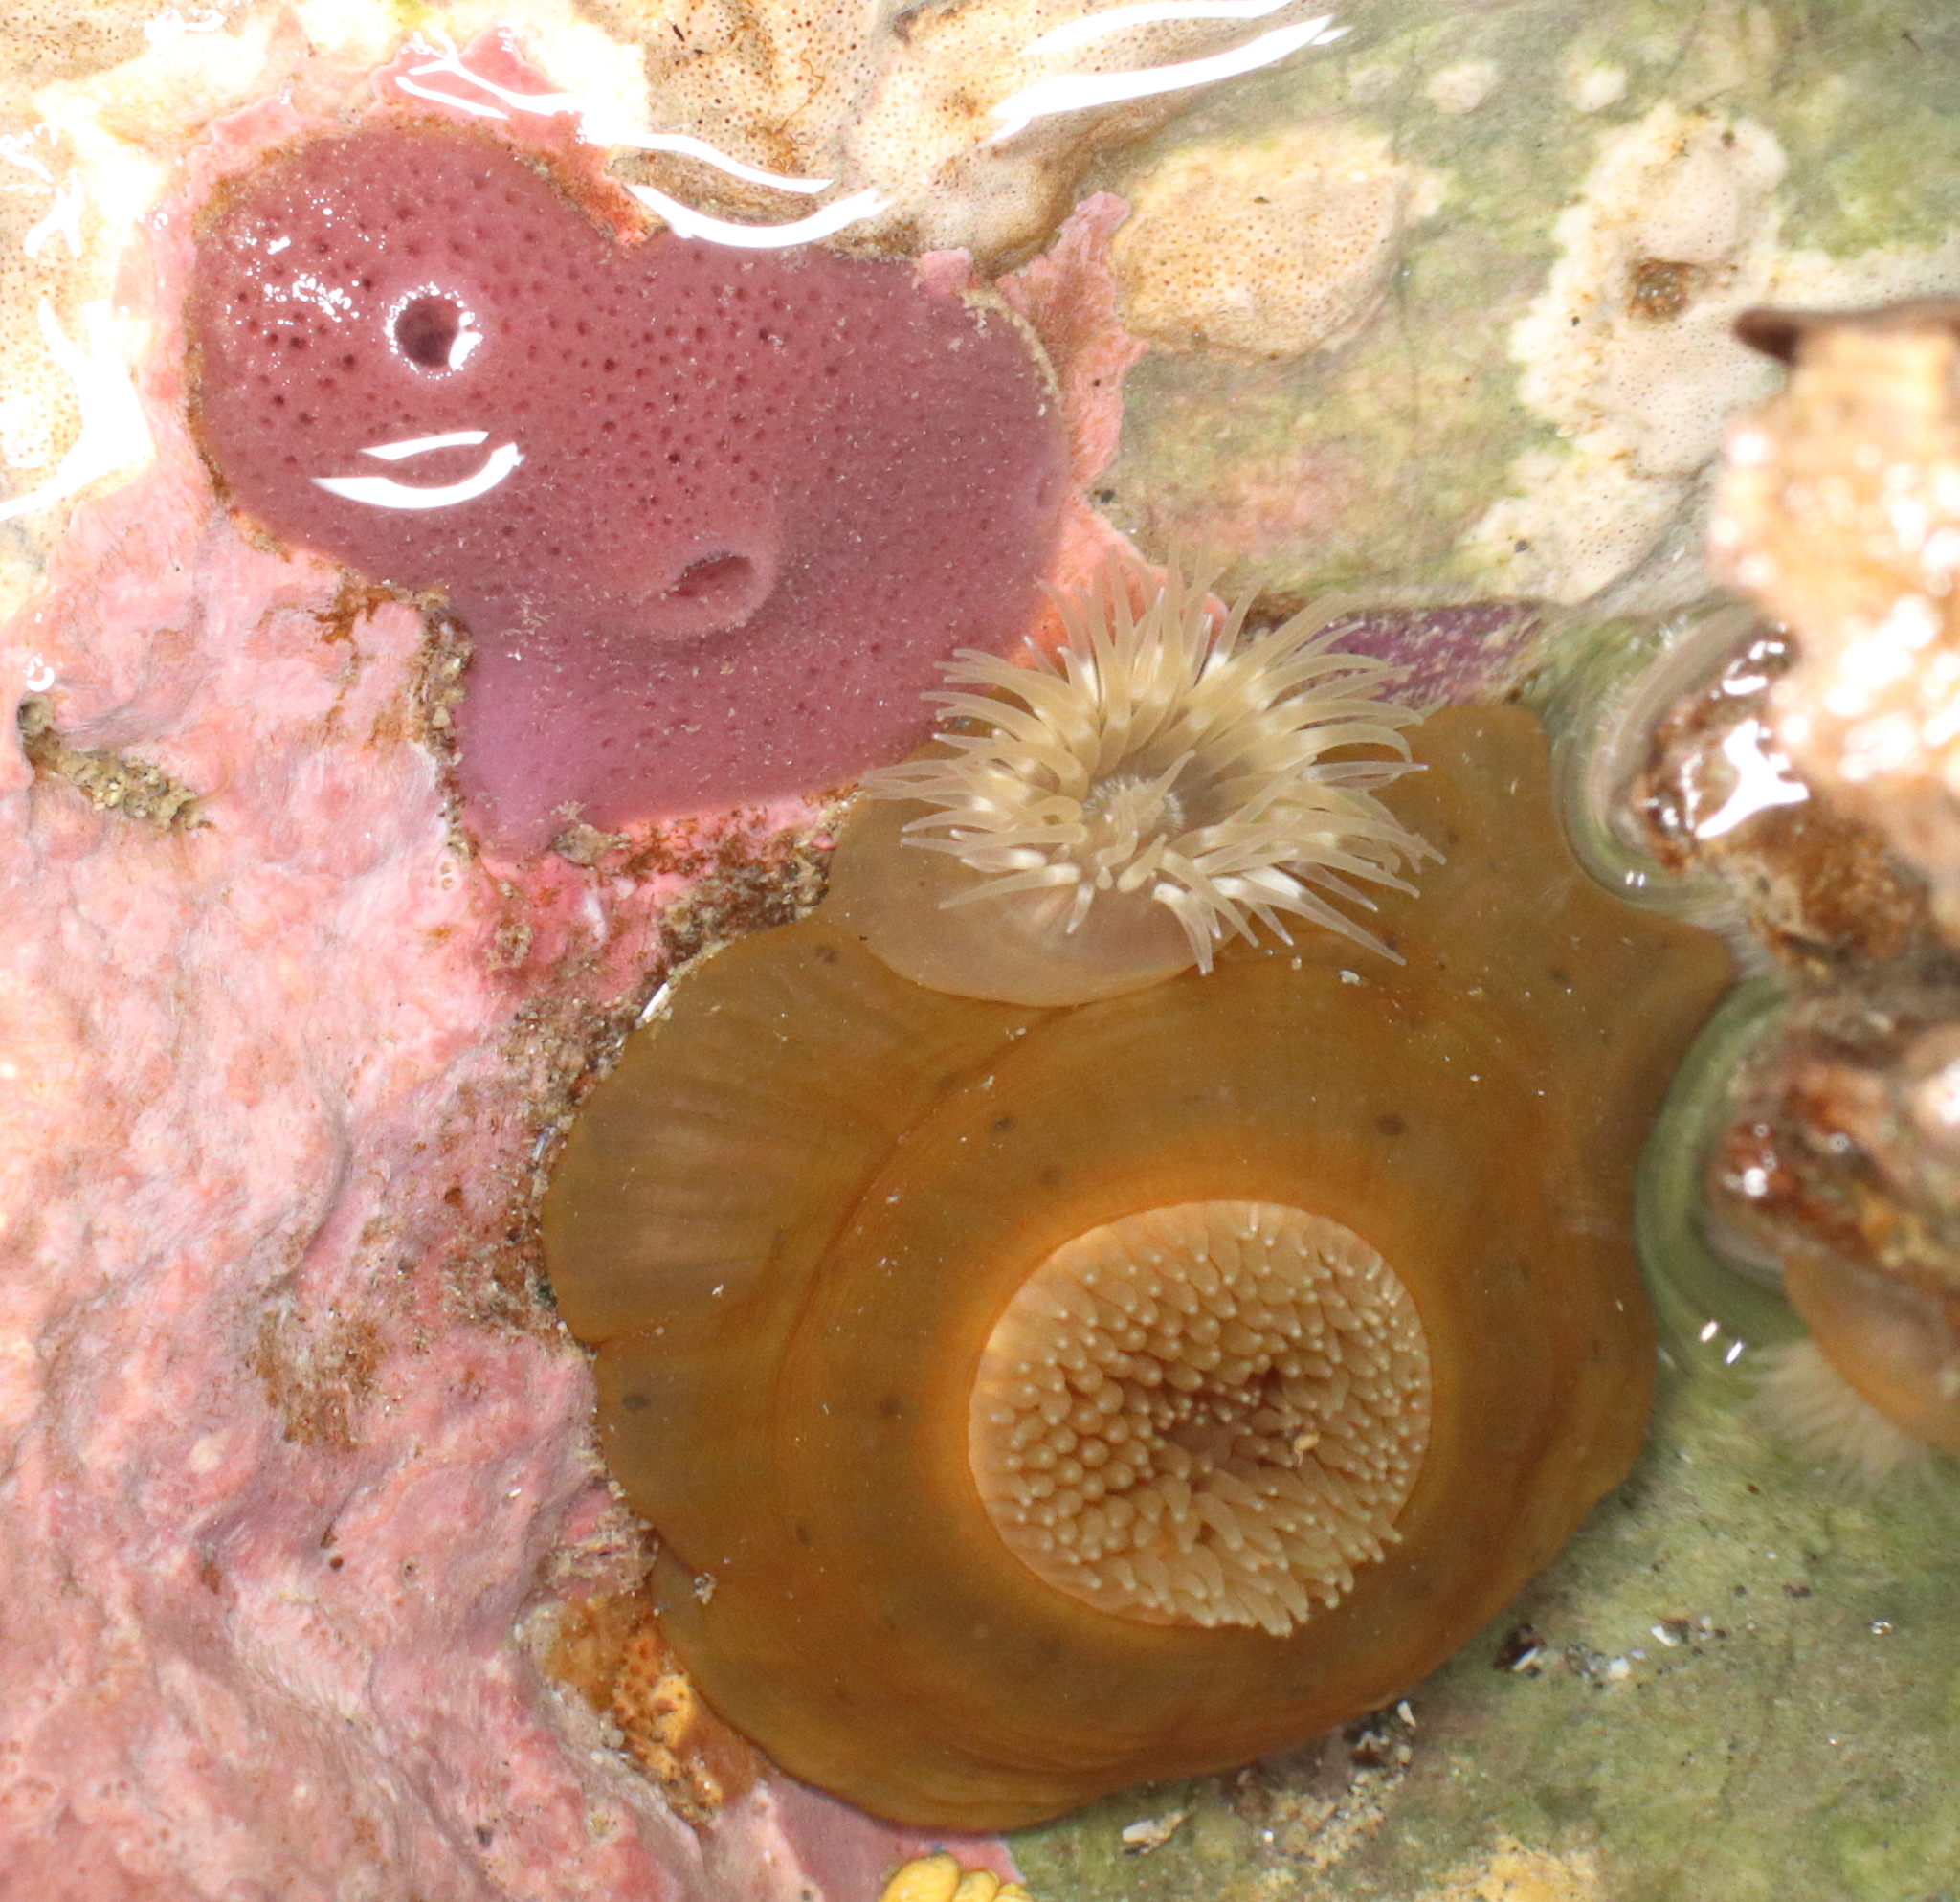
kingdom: Animalia
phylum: Cnidaria
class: Anthozoa
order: Actiniaria
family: Metridiidae
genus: Metridium
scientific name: Metridium senile
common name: Clonal plumose anemone
